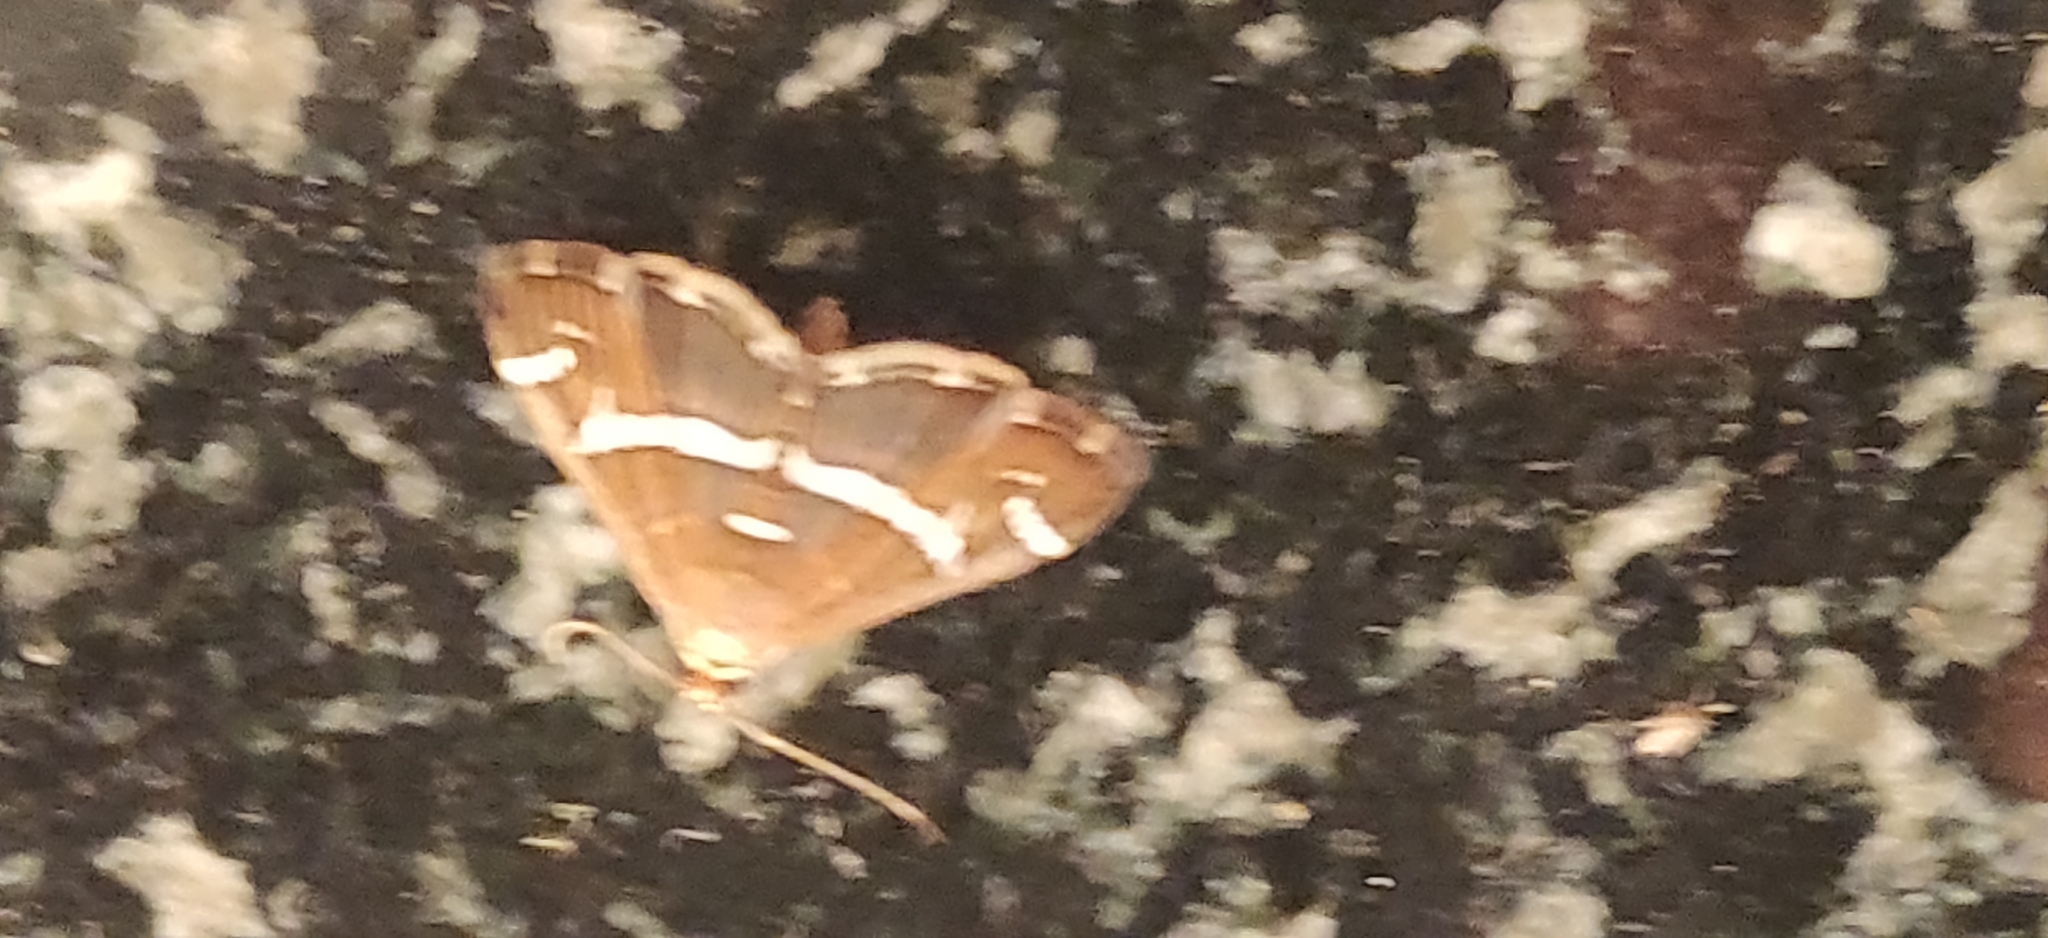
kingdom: Animalia
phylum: Arthropoda
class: Insecta
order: Lepidoptera
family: Crambidae
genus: Spoladea
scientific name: Spoladea recurvalis
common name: Beet webworm moth
